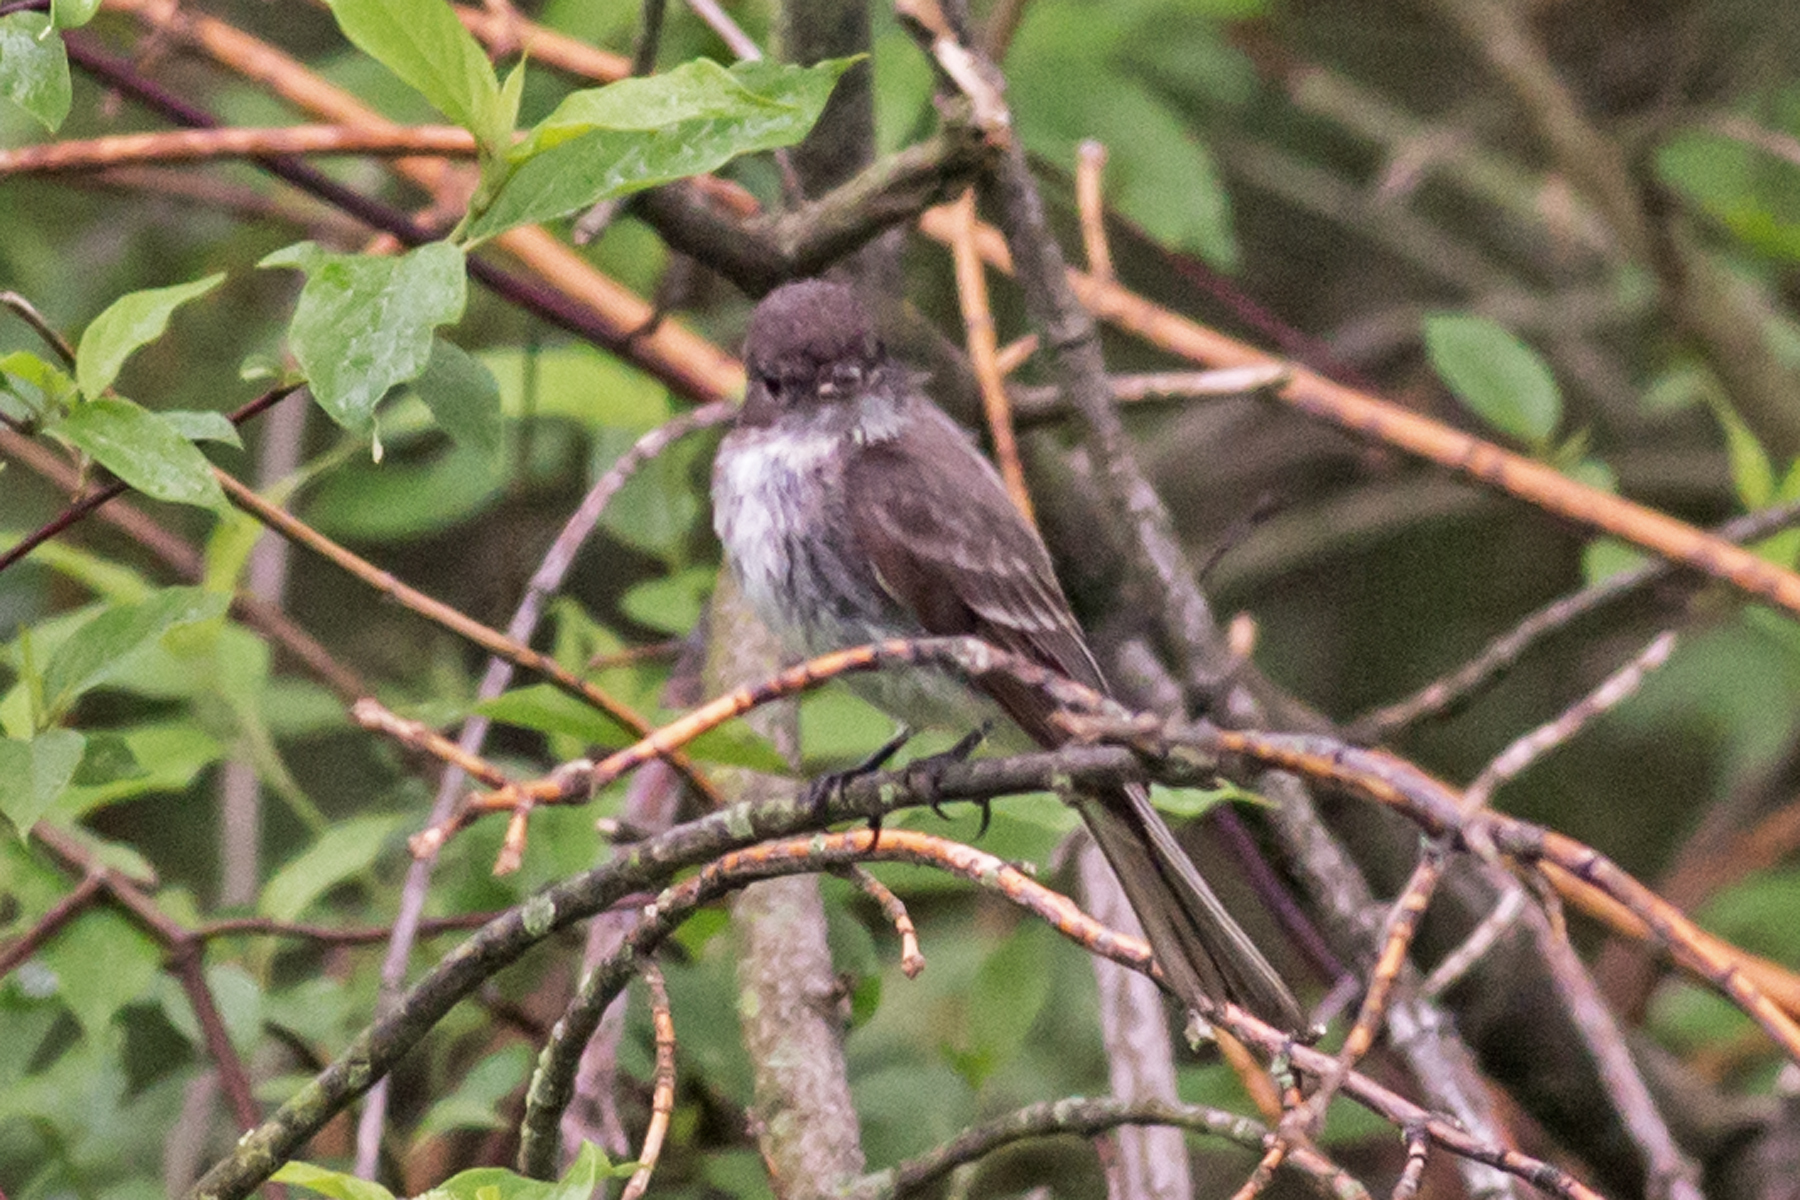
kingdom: Animalia
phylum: Chordata
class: Aves
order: Passeriformes
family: Tyrannidae
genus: Sayornis
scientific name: Sayornis phoebe
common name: Eastern phoebe
